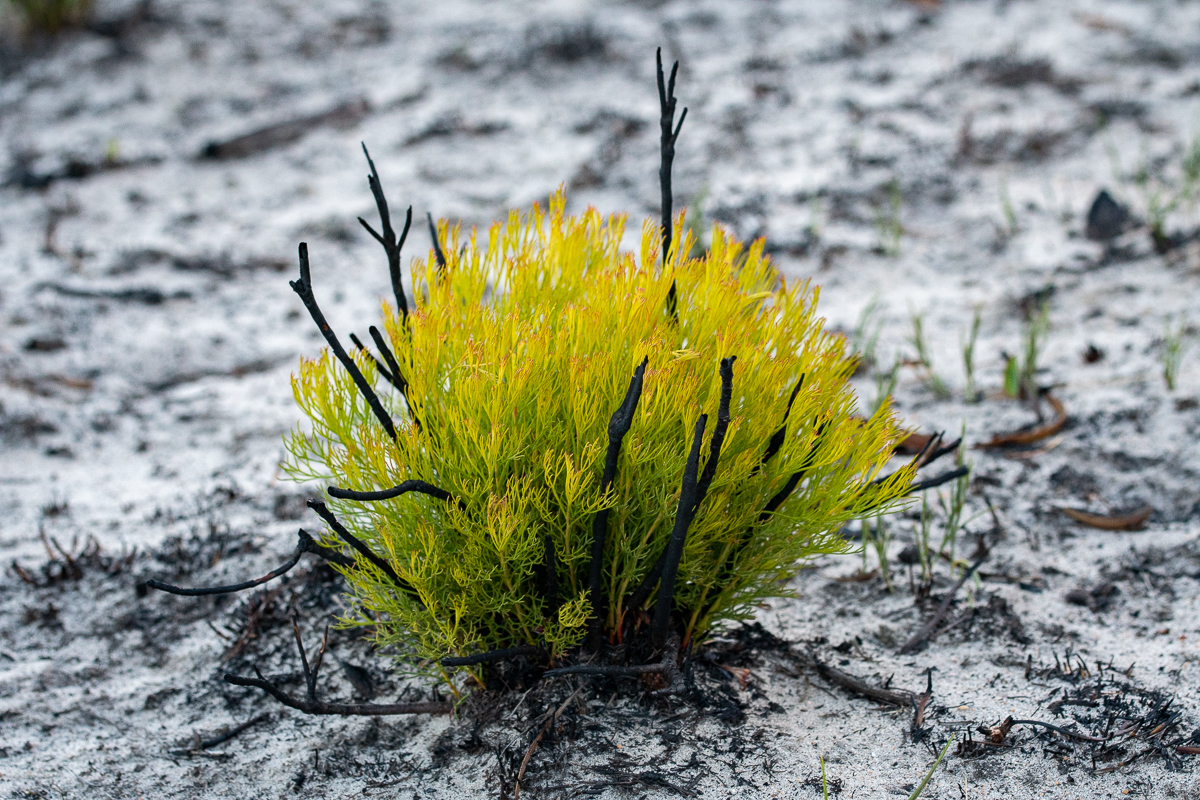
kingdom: Plantae
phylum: Tracheophyta
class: Magnoliopsida
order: Proteales
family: Proteaceae
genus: Serruria
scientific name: Serruria rubricaulis
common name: Red-stem spiderhead
